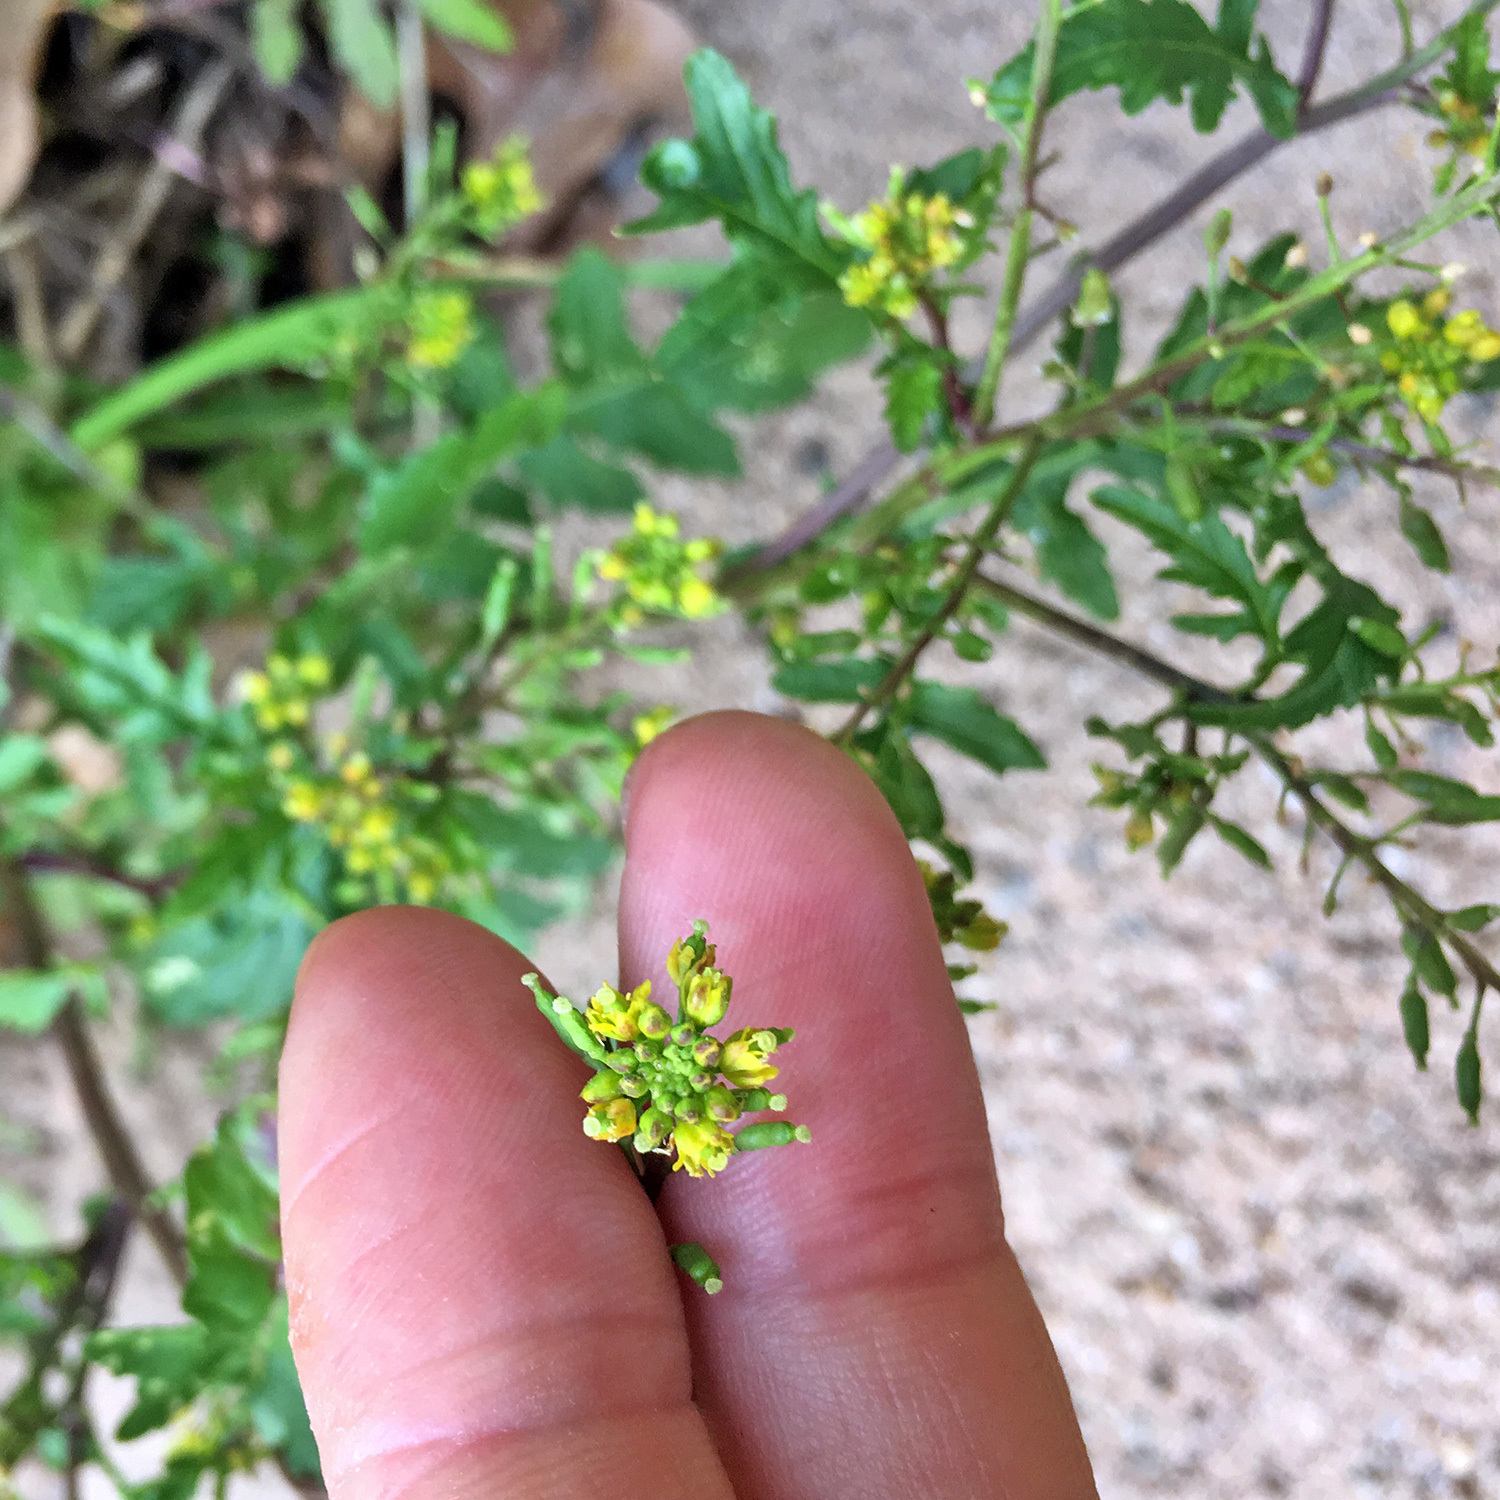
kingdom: Plantae
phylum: Tracheophyta
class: Magnoliopsida
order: Brassicales
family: Brassicaceae
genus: Rorippa
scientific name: Rorippa sylvestris
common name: Creeping yellowcress
